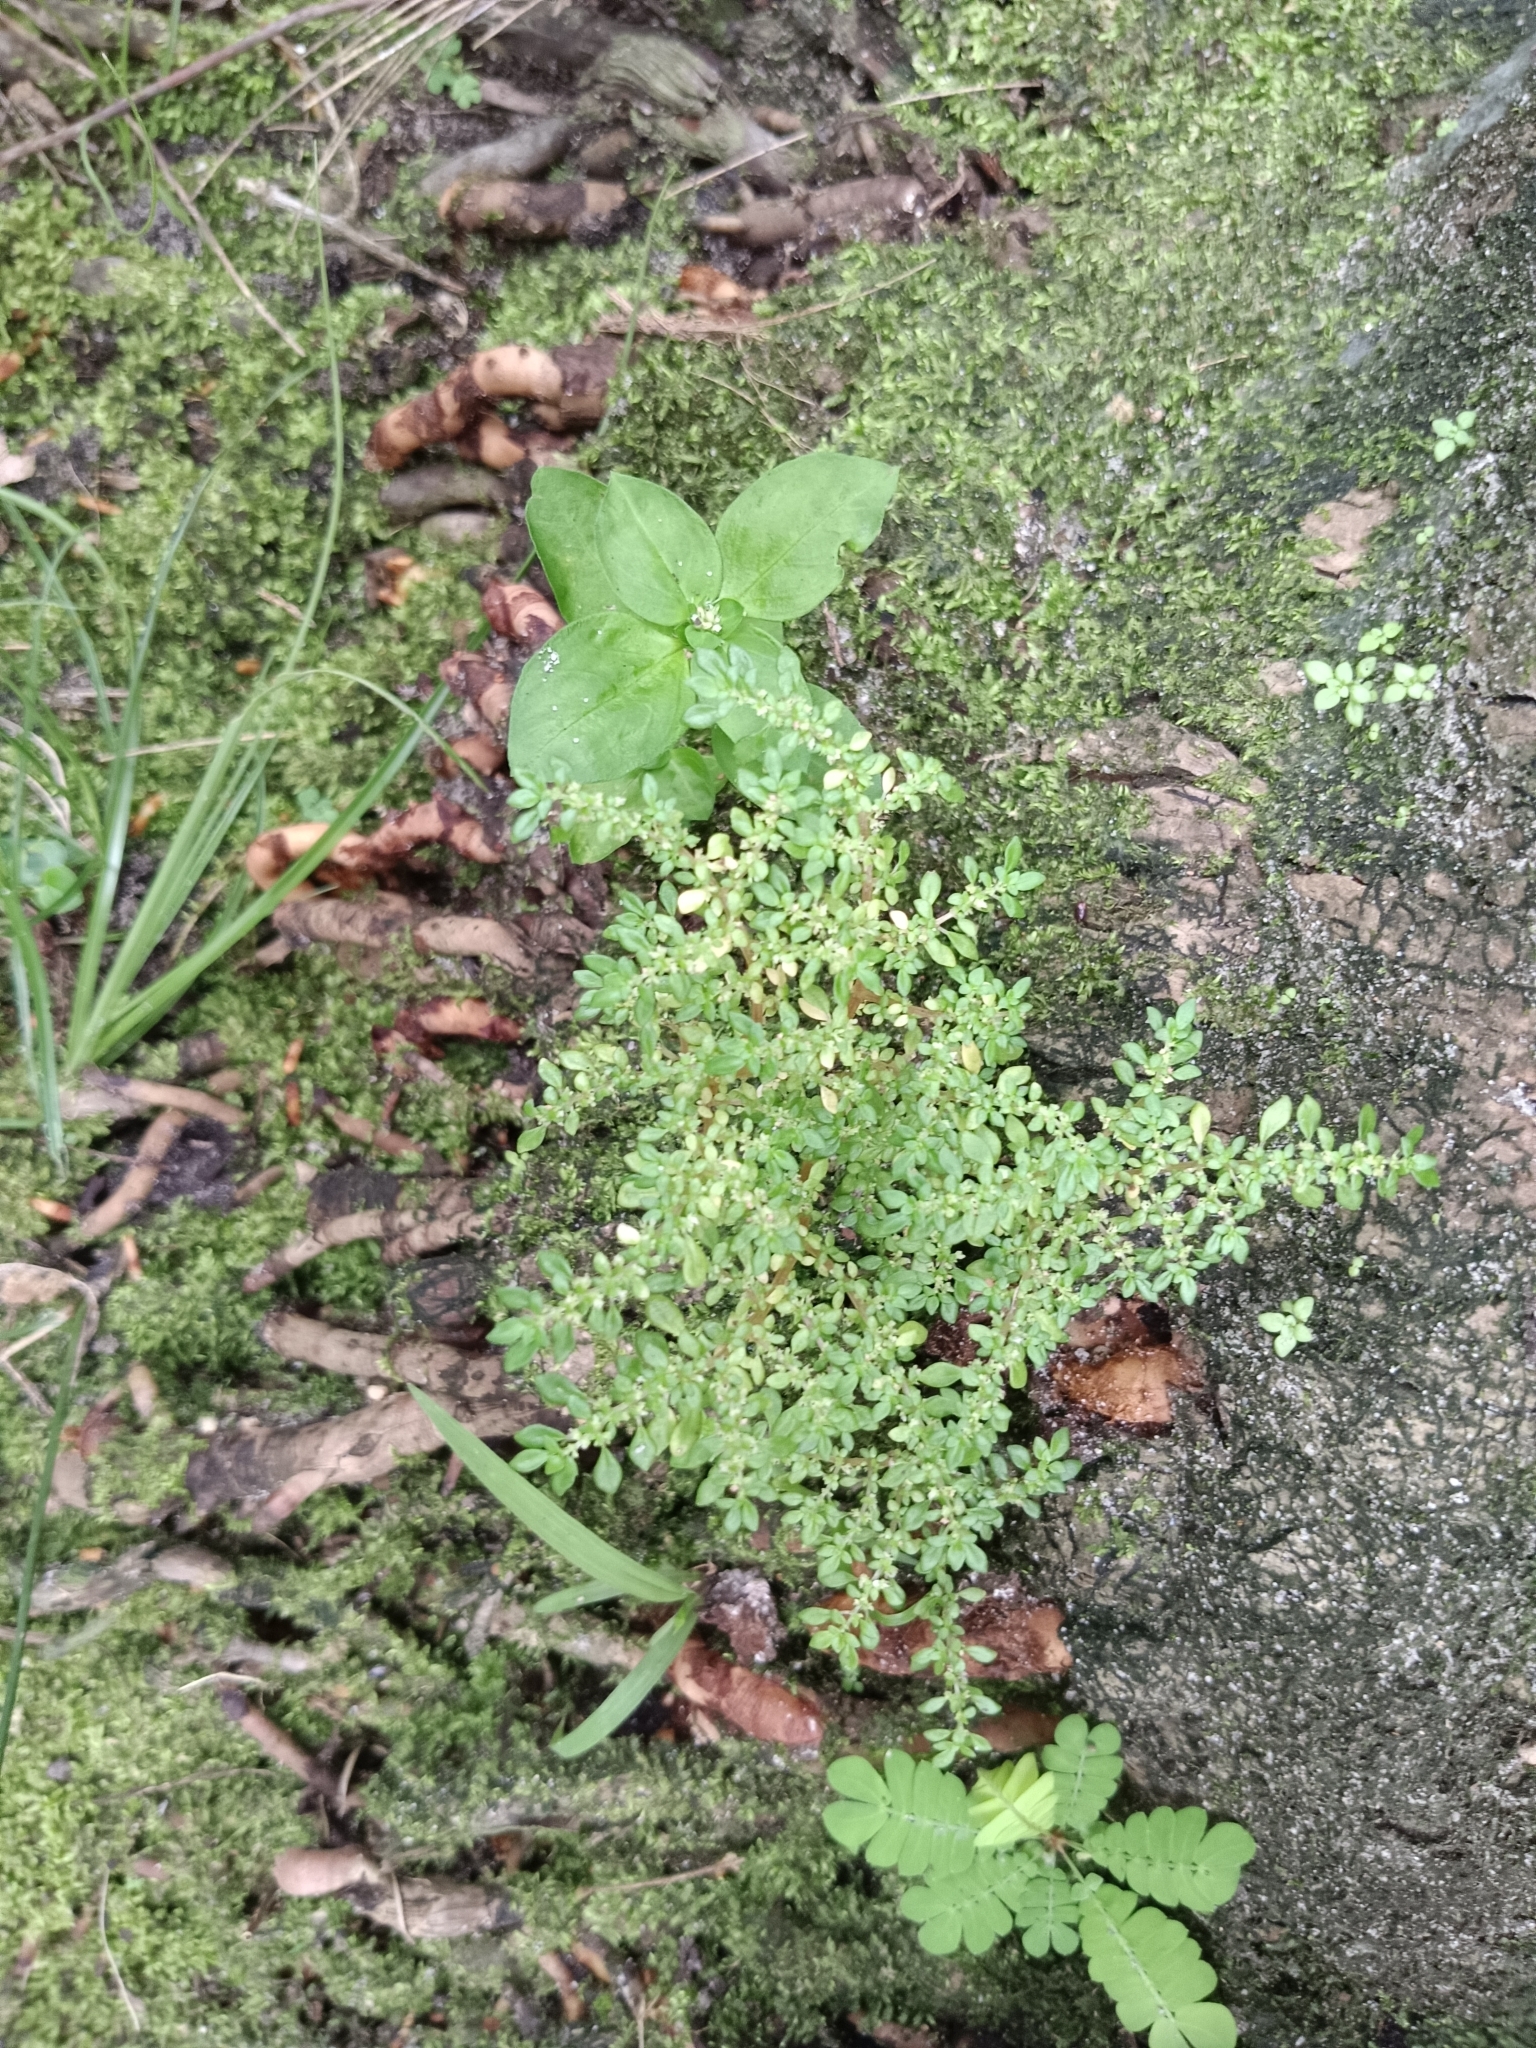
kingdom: Plantae
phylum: Tracheophyta
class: Magnoliopsida
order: Rosales
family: Urticaceae
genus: Pilea
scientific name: Pilea microphylla
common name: Artillery-plant
